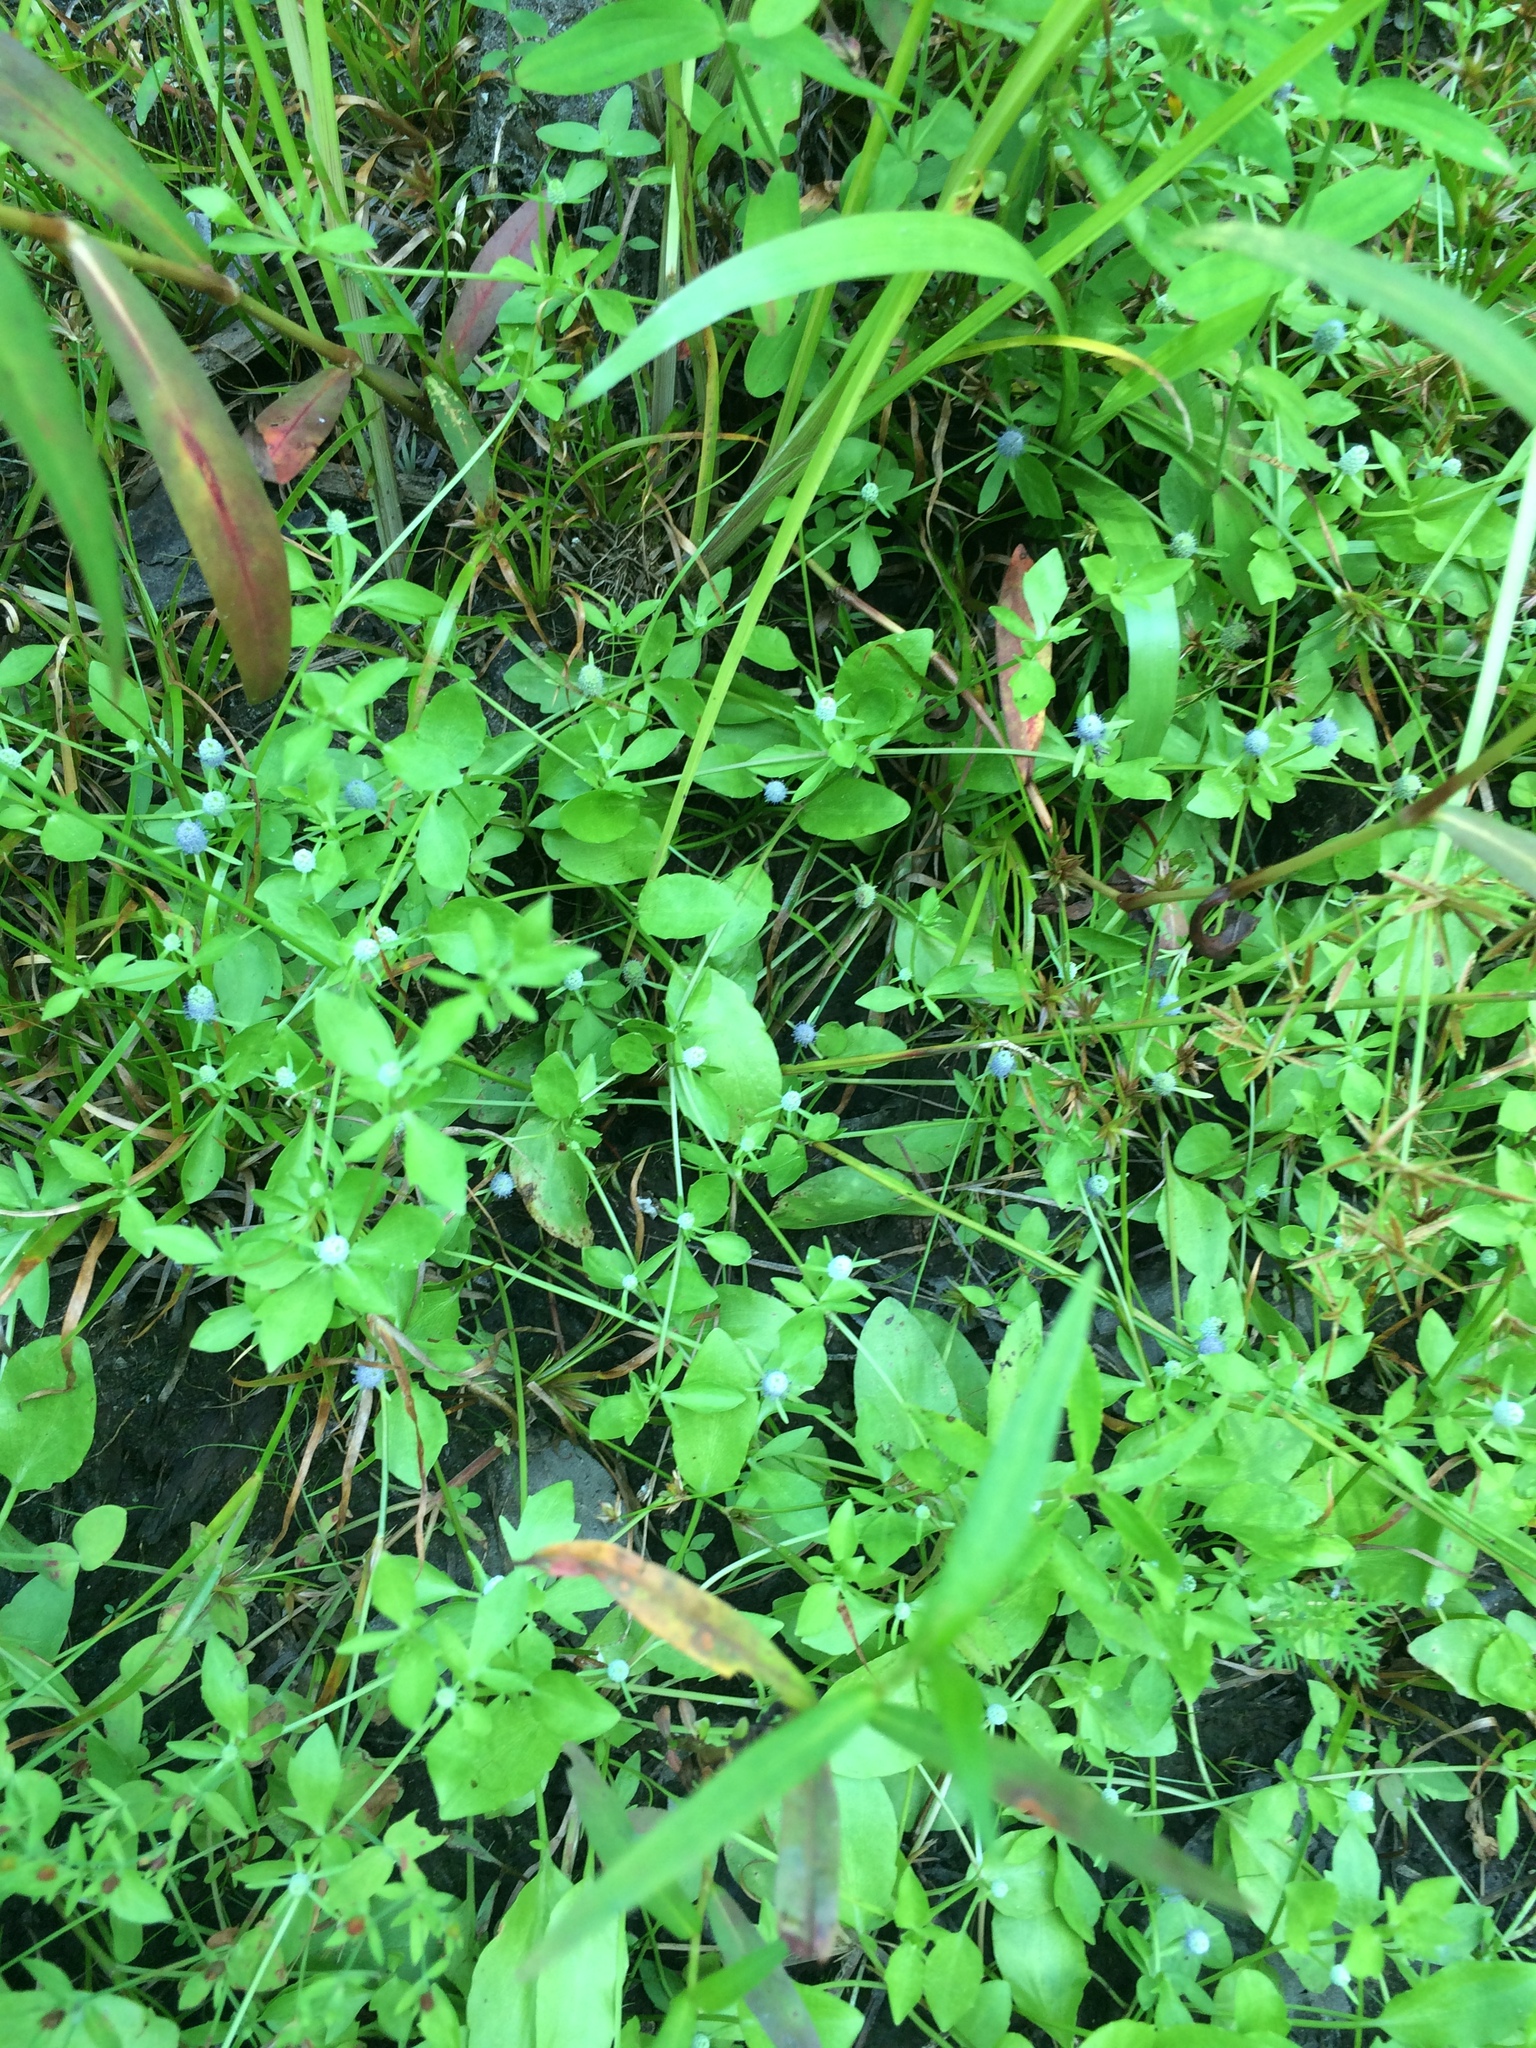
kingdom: Plantae
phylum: Tracheophyta
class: Magnoliopsida
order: Apiales
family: Apiaceae
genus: Eryngium
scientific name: Eryngium prostratum
